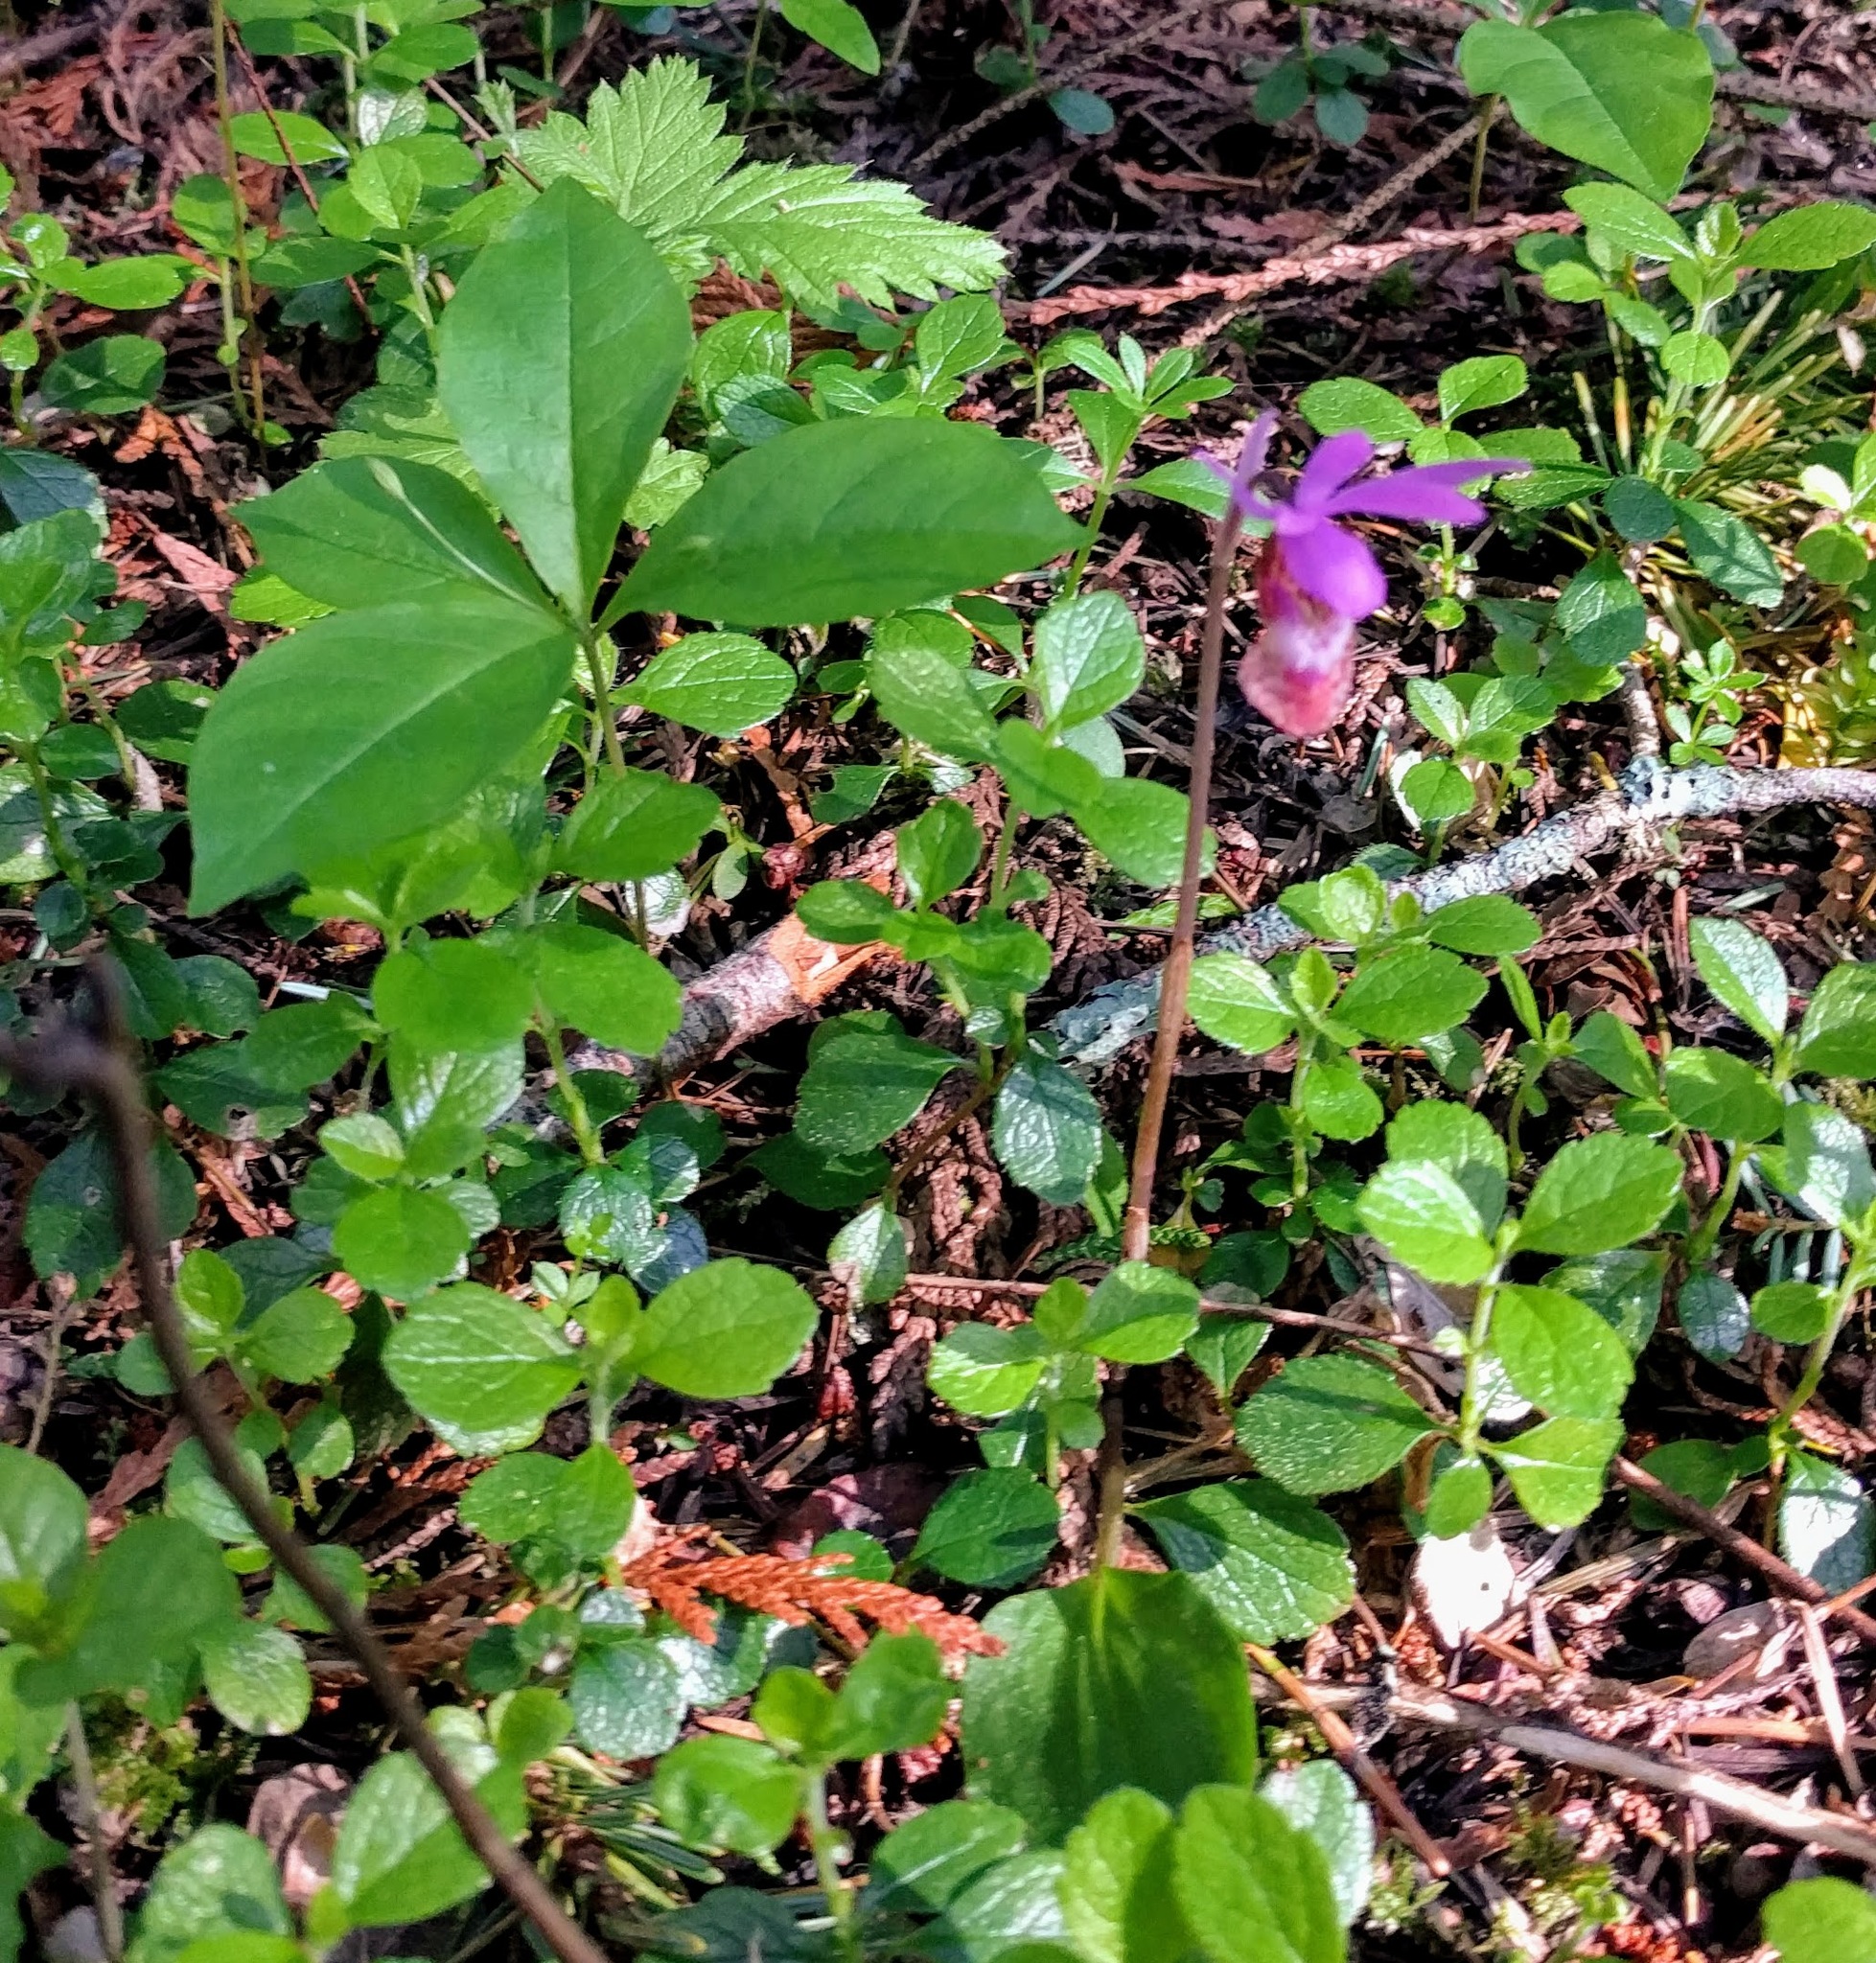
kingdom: Plantae
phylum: Tracheophyta
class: Liliopsida
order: Asparagales
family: Orchidaceae
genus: Calypso
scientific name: Calypso bulbosa
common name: Calypso
